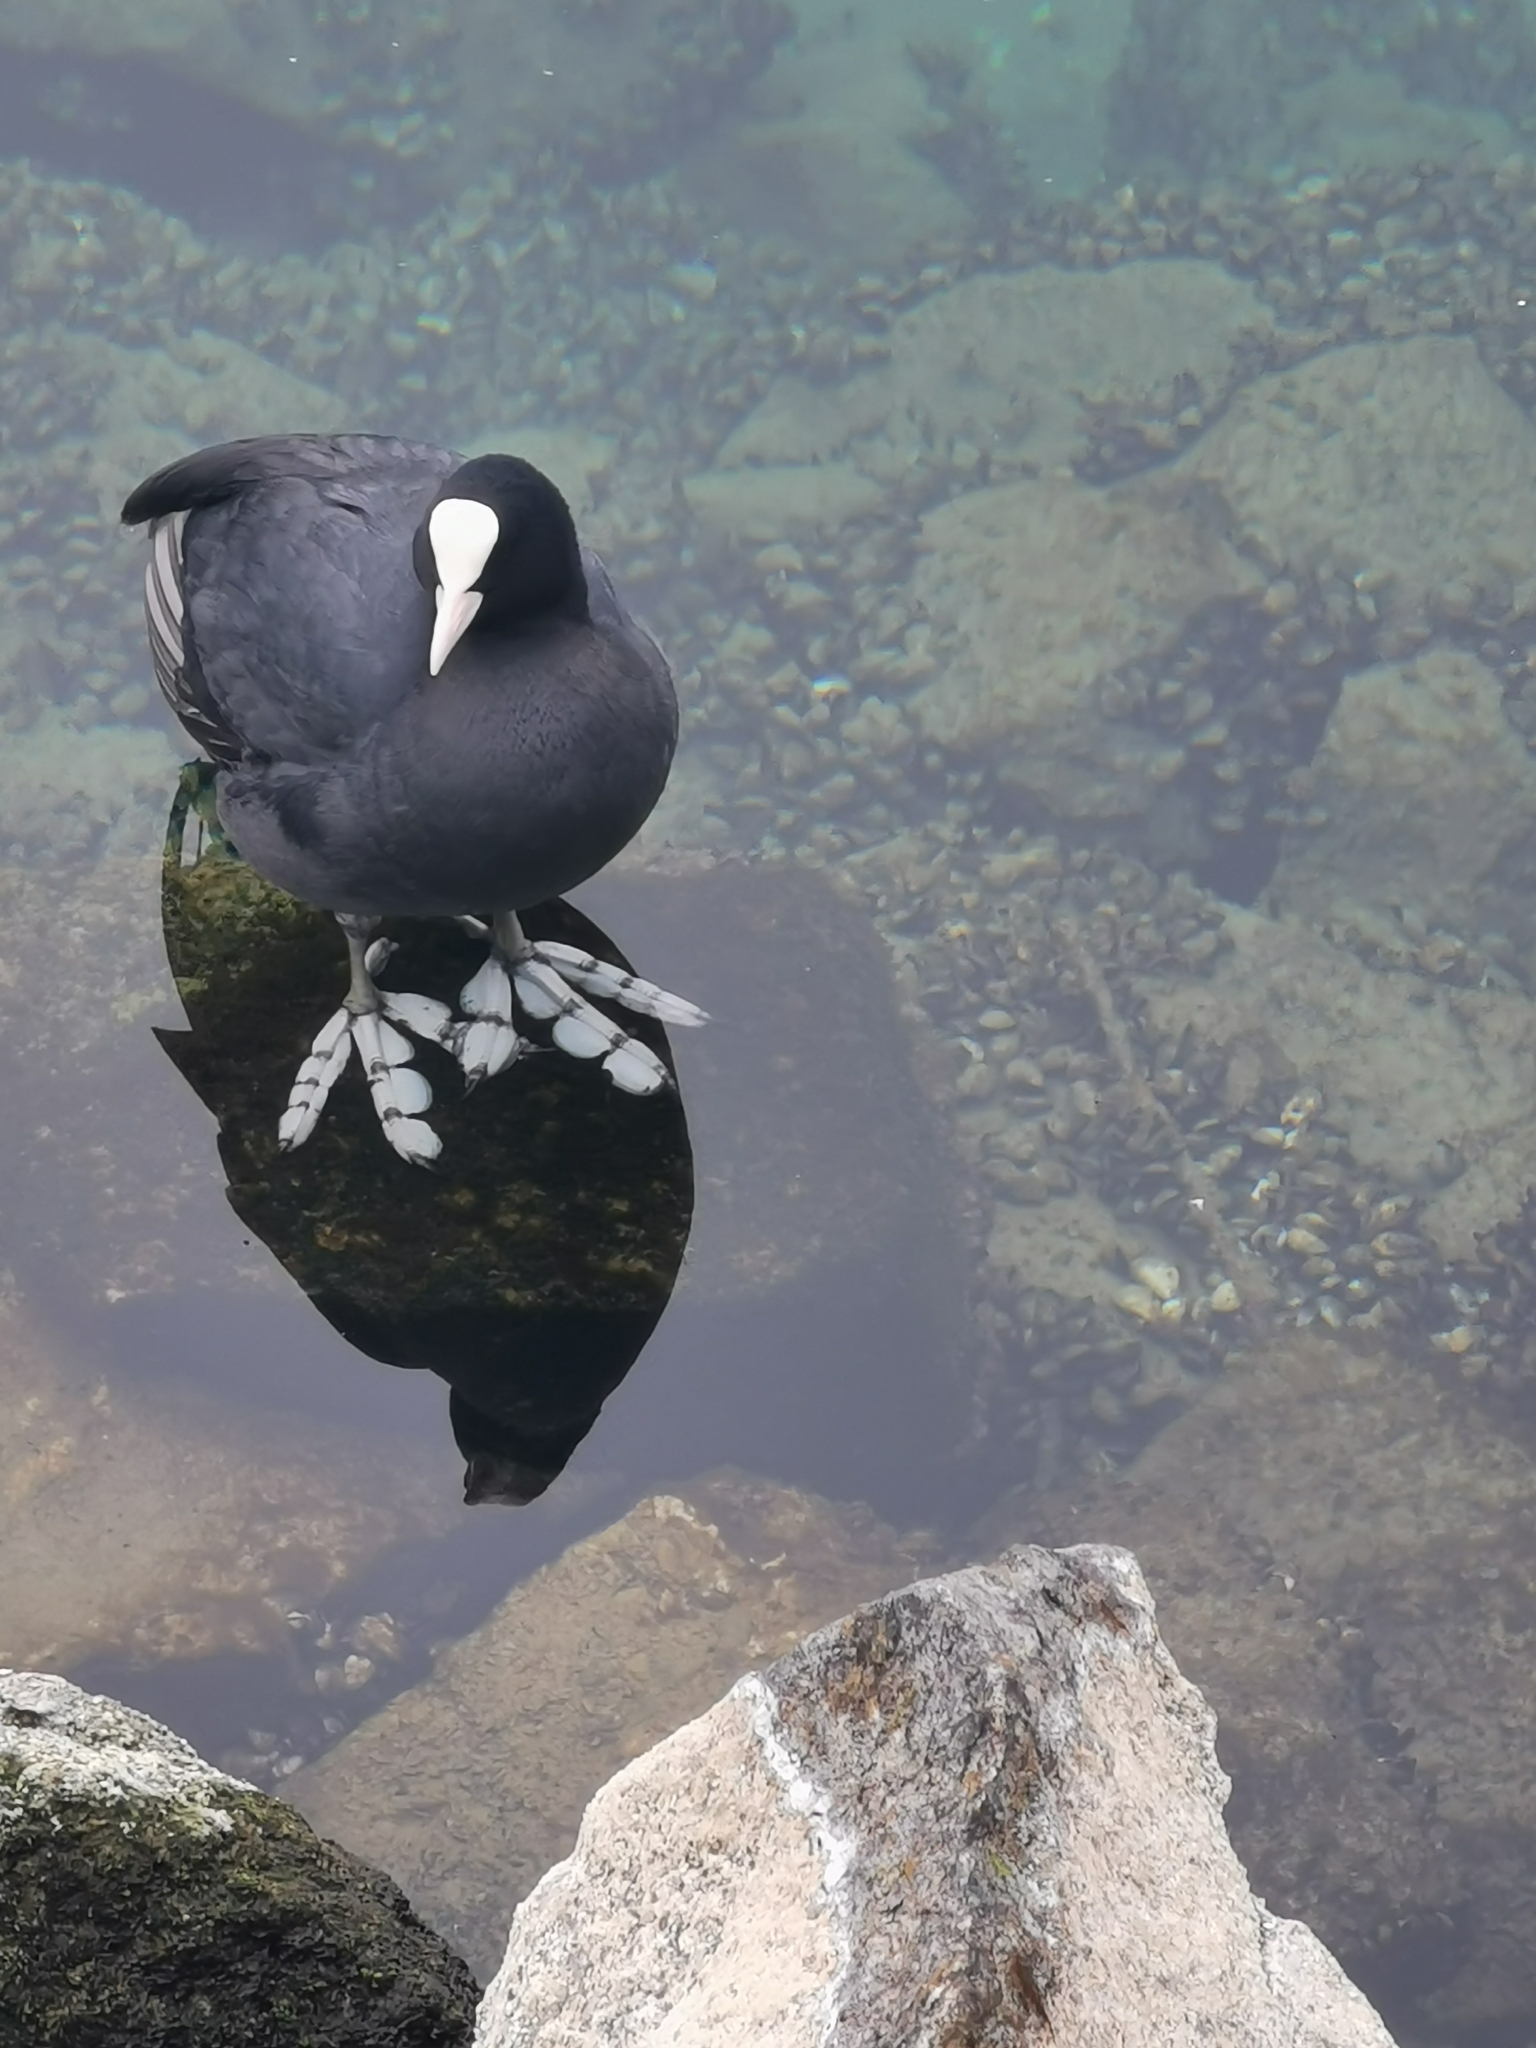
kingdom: Animalia
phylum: Chordata
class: Aves
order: Gruiformes
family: Rallidae
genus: Fulica
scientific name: Fulica atra
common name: Eurasian coot
